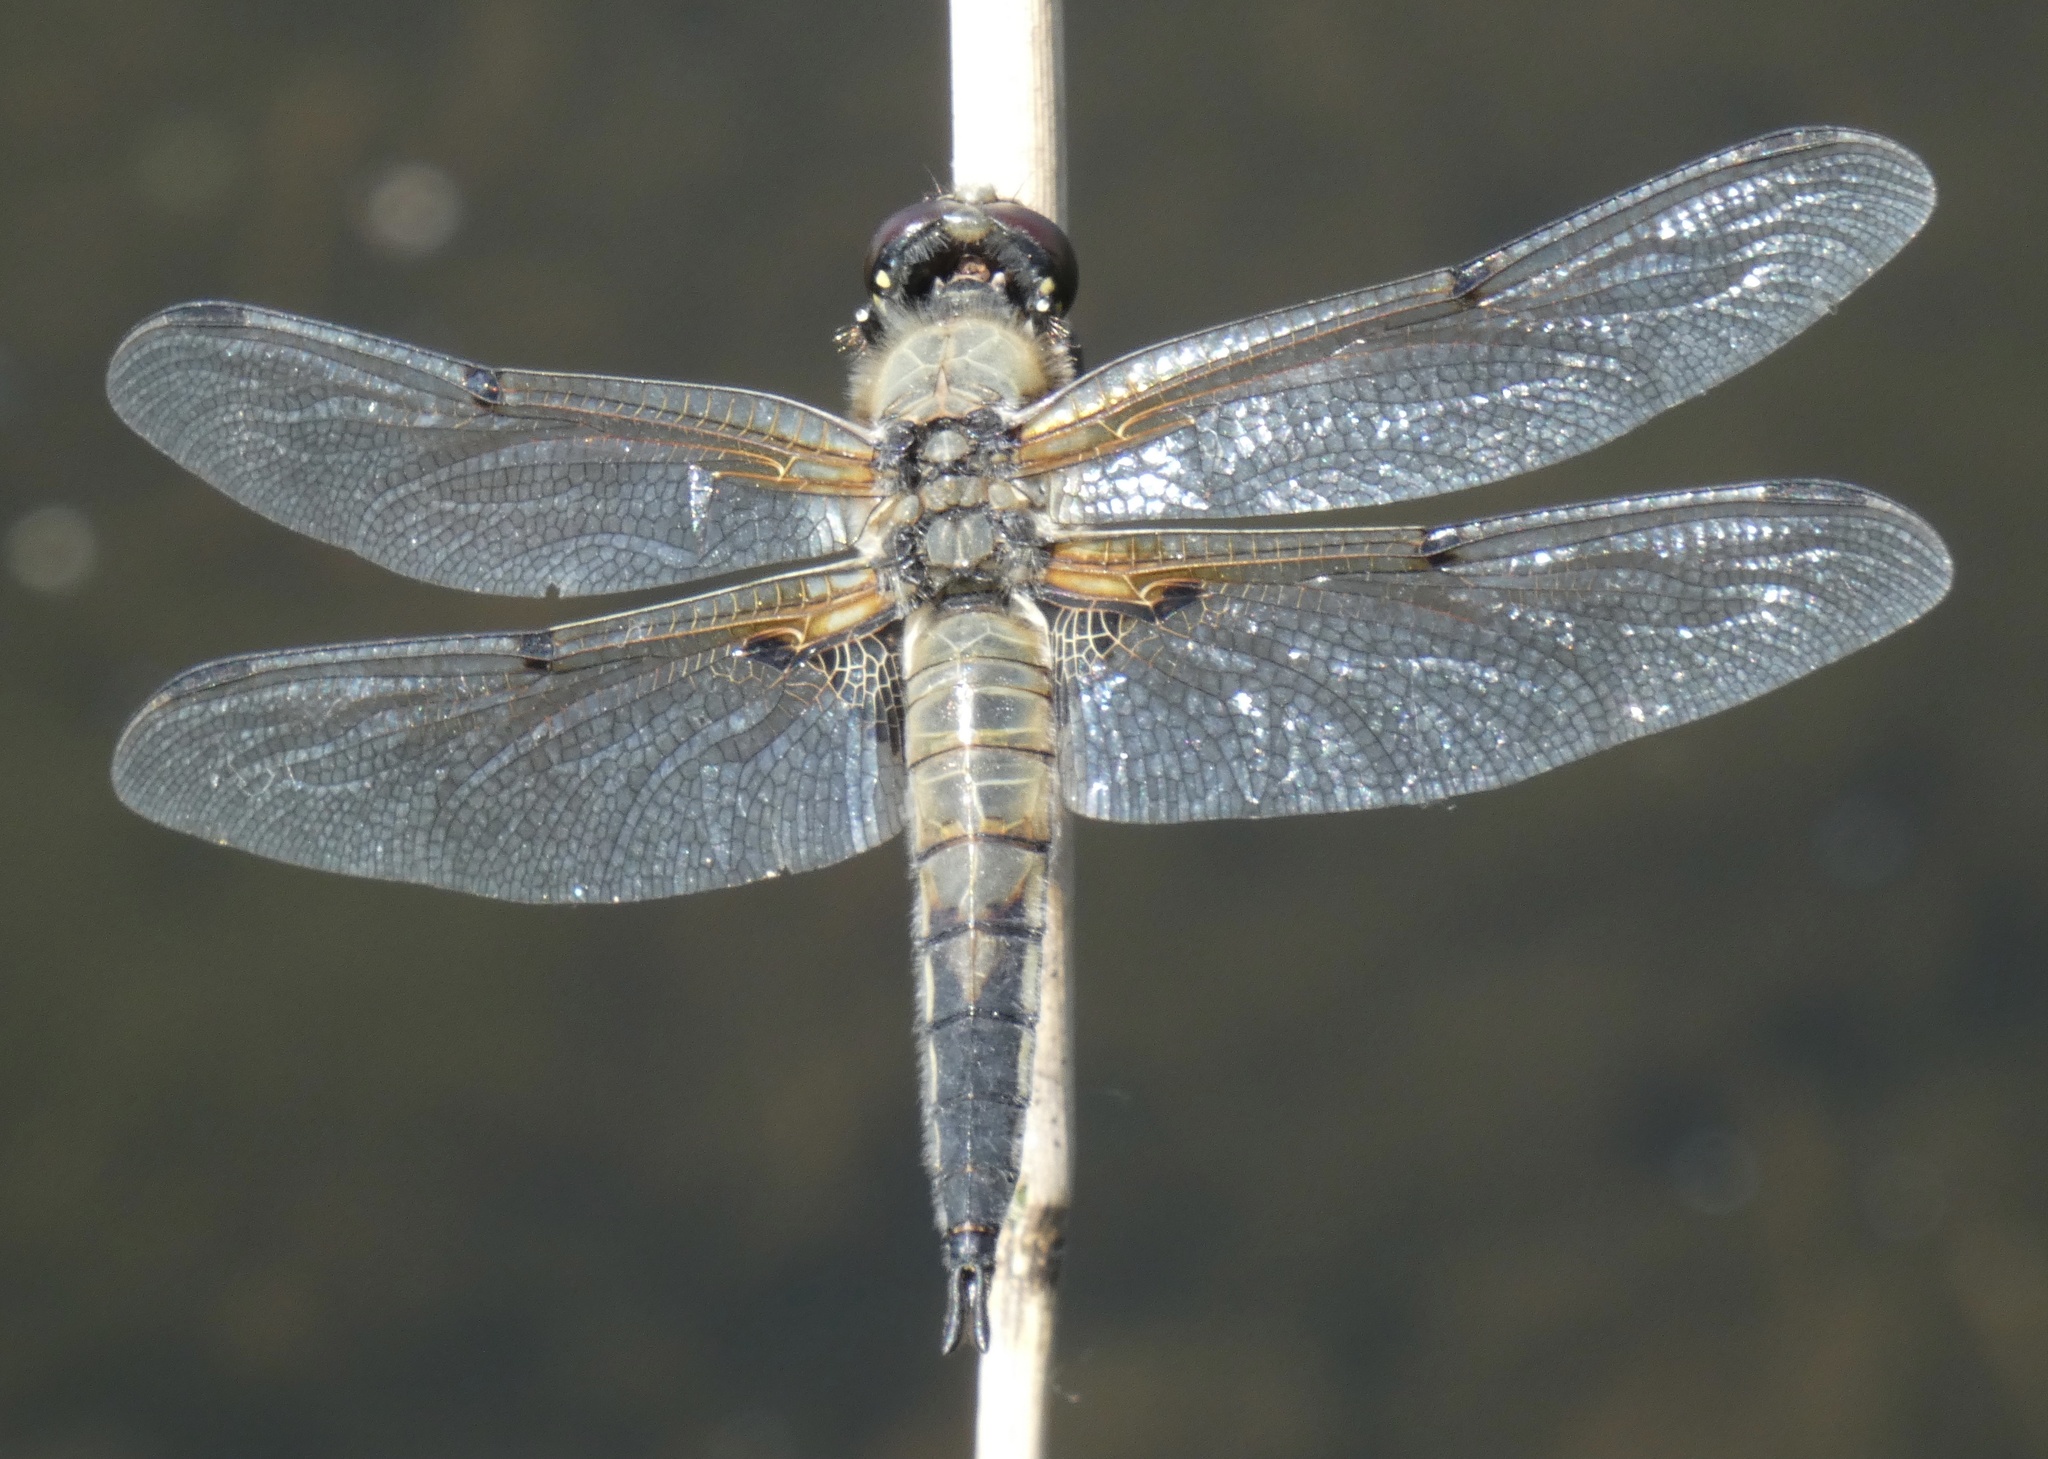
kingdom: Animalia
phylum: Arthropoda
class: Insecta
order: Odonata
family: Libellulidae
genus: Libellula
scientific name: Libellula quadrimaculata
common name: Four-spotted chaser
